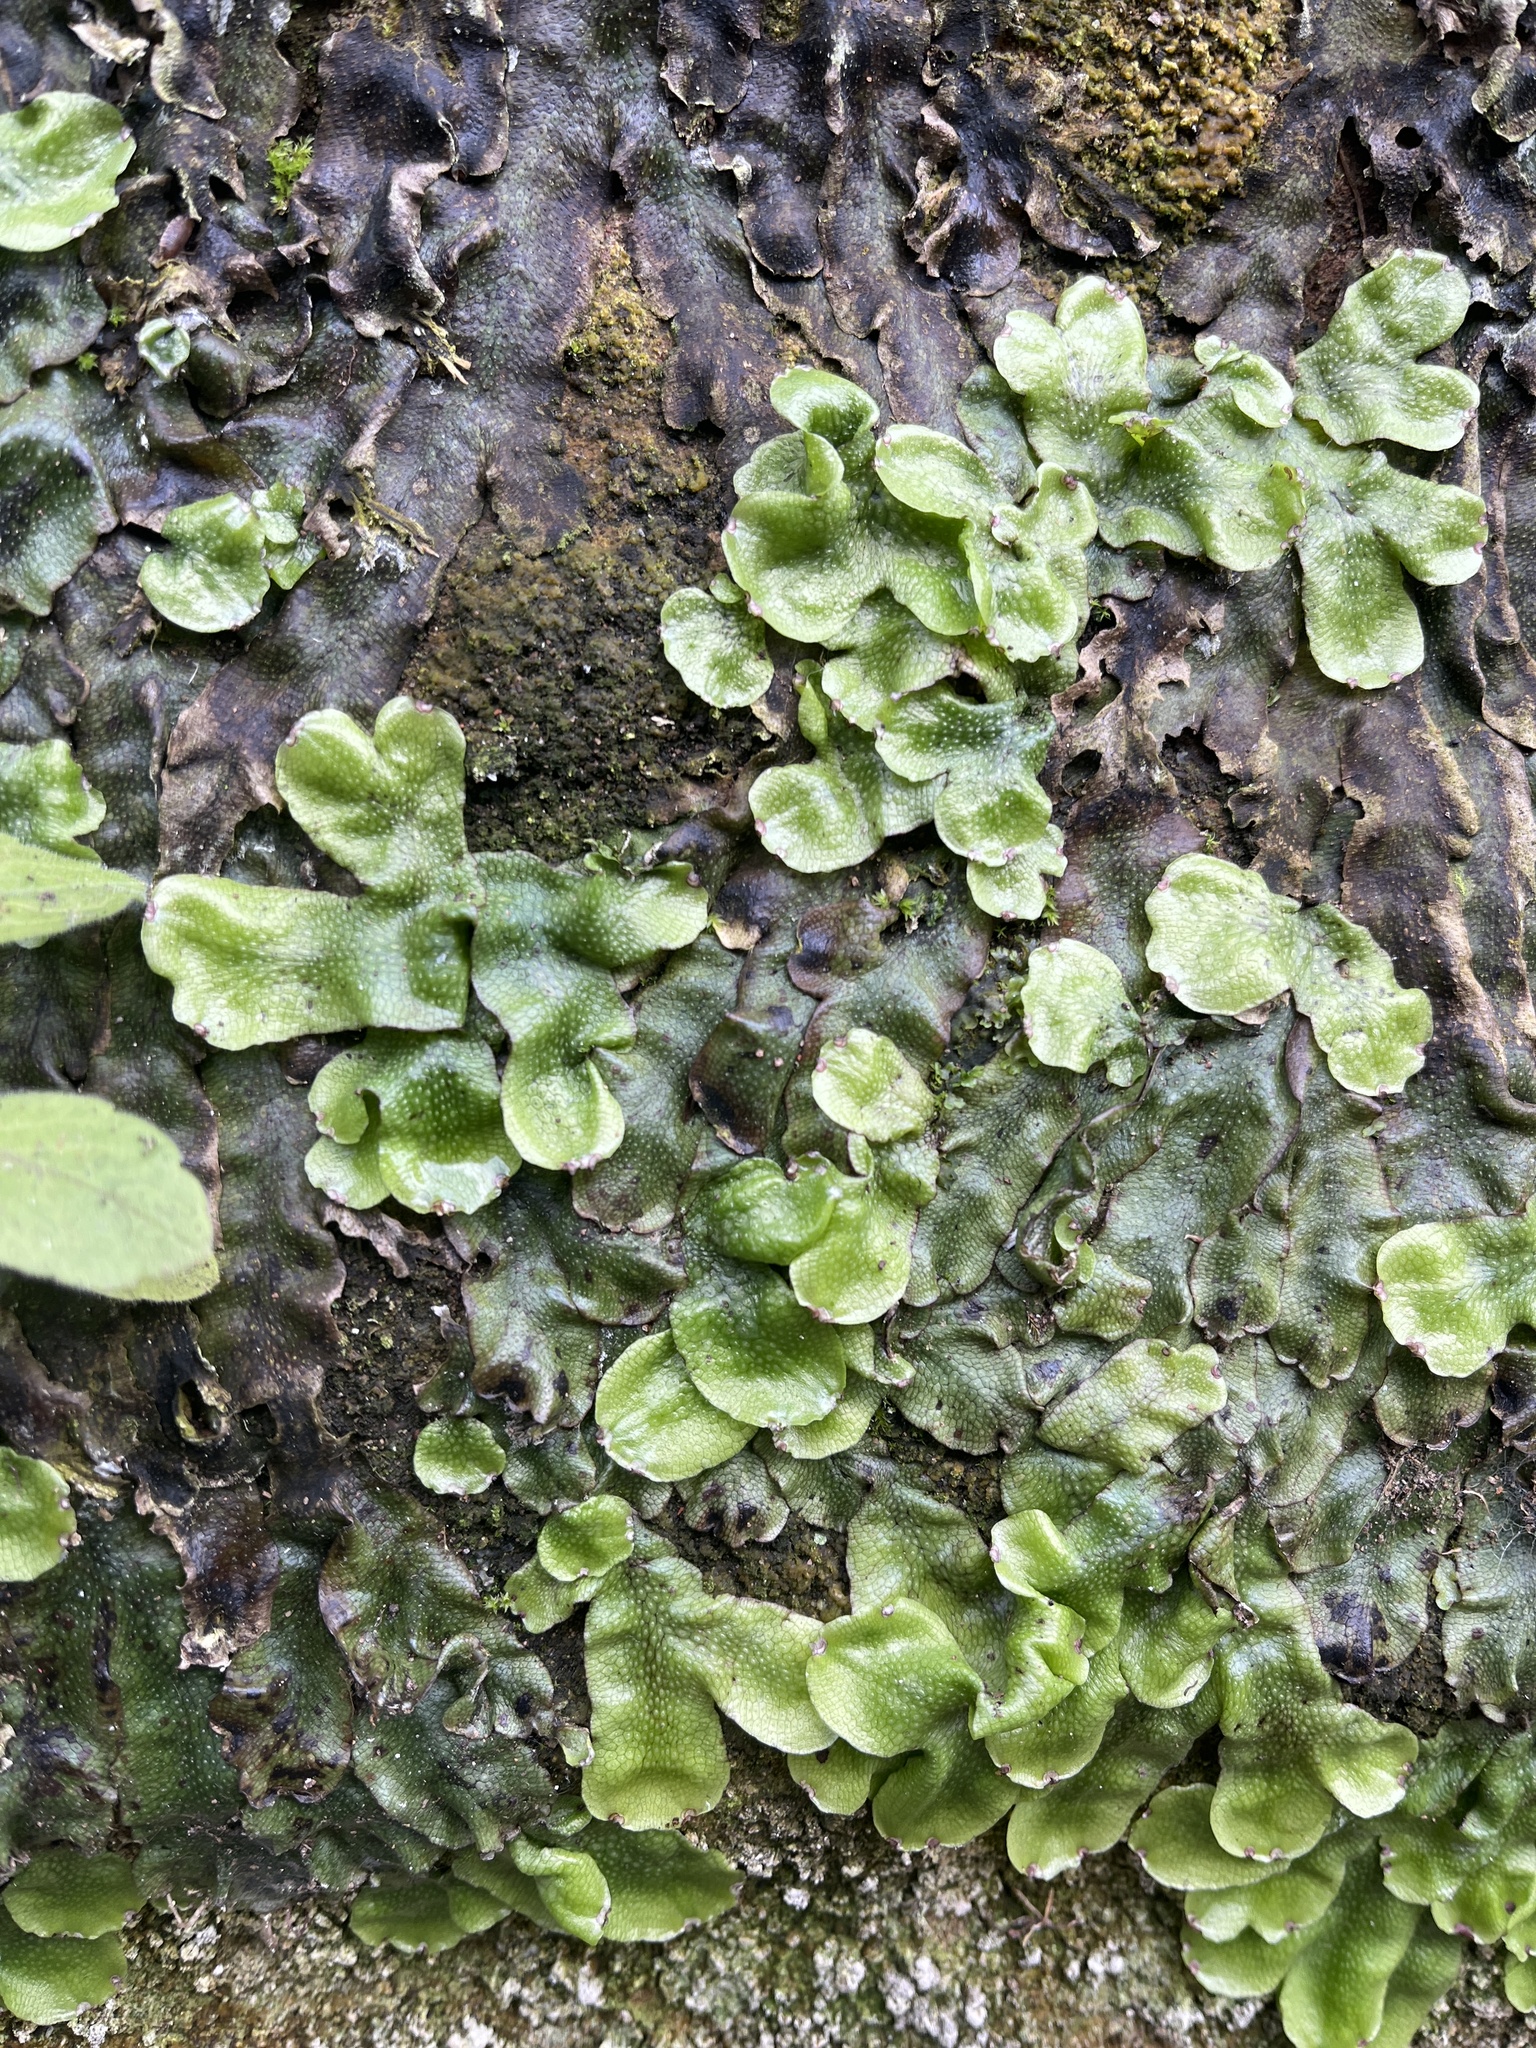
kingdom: Plantae
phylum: Marchantiophyta
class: Marchantiopsida
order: Marchantiales
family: Conocephalaceae
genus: Conocephalum
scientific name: Conocephalum conicum
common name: Great scented liverwort
